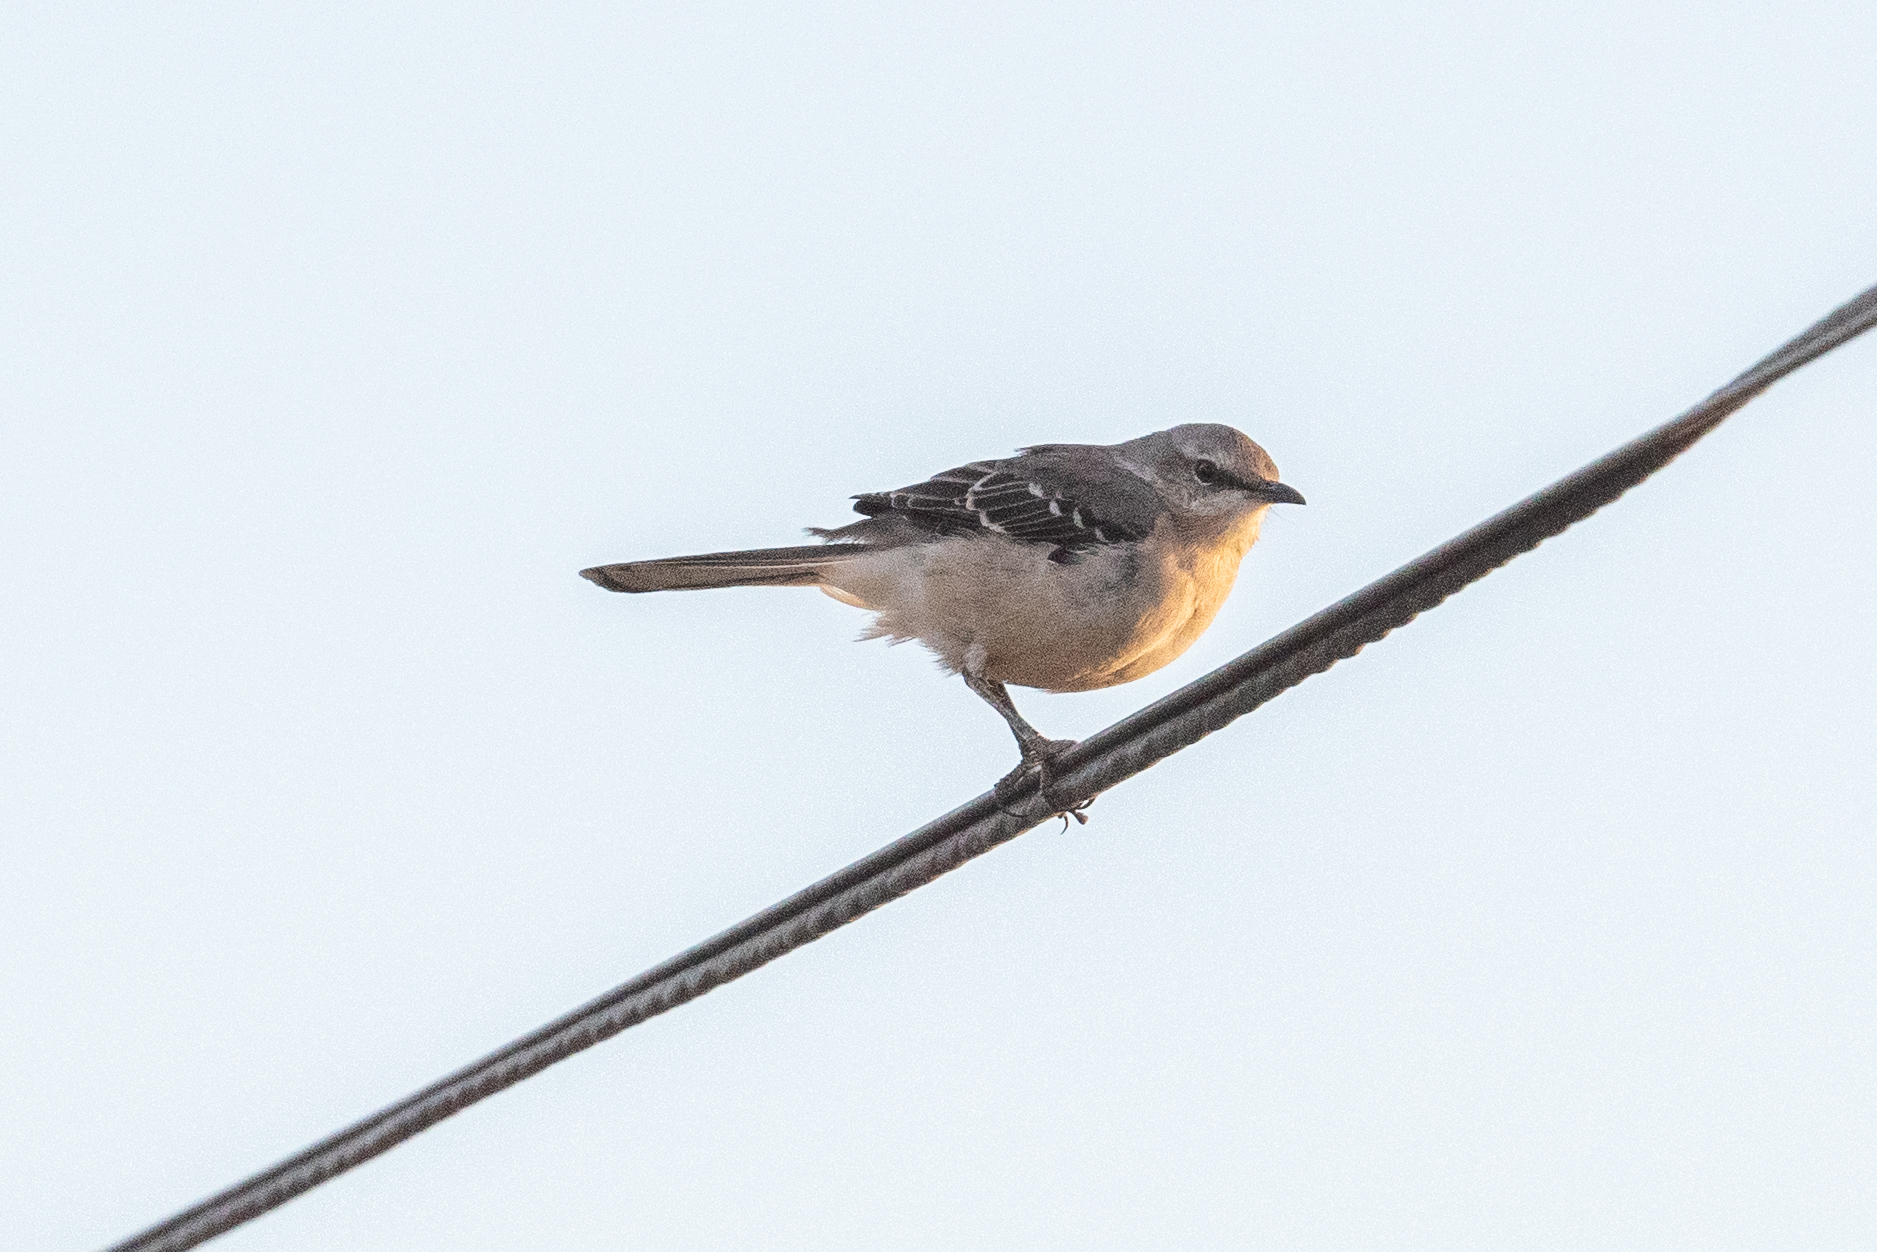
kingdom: Animalia
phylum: Chordata
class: Aves
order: Passeriformes
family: Mimidae
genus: Mimus
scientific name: Mimus polyglottos
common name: Northern mockingbird
